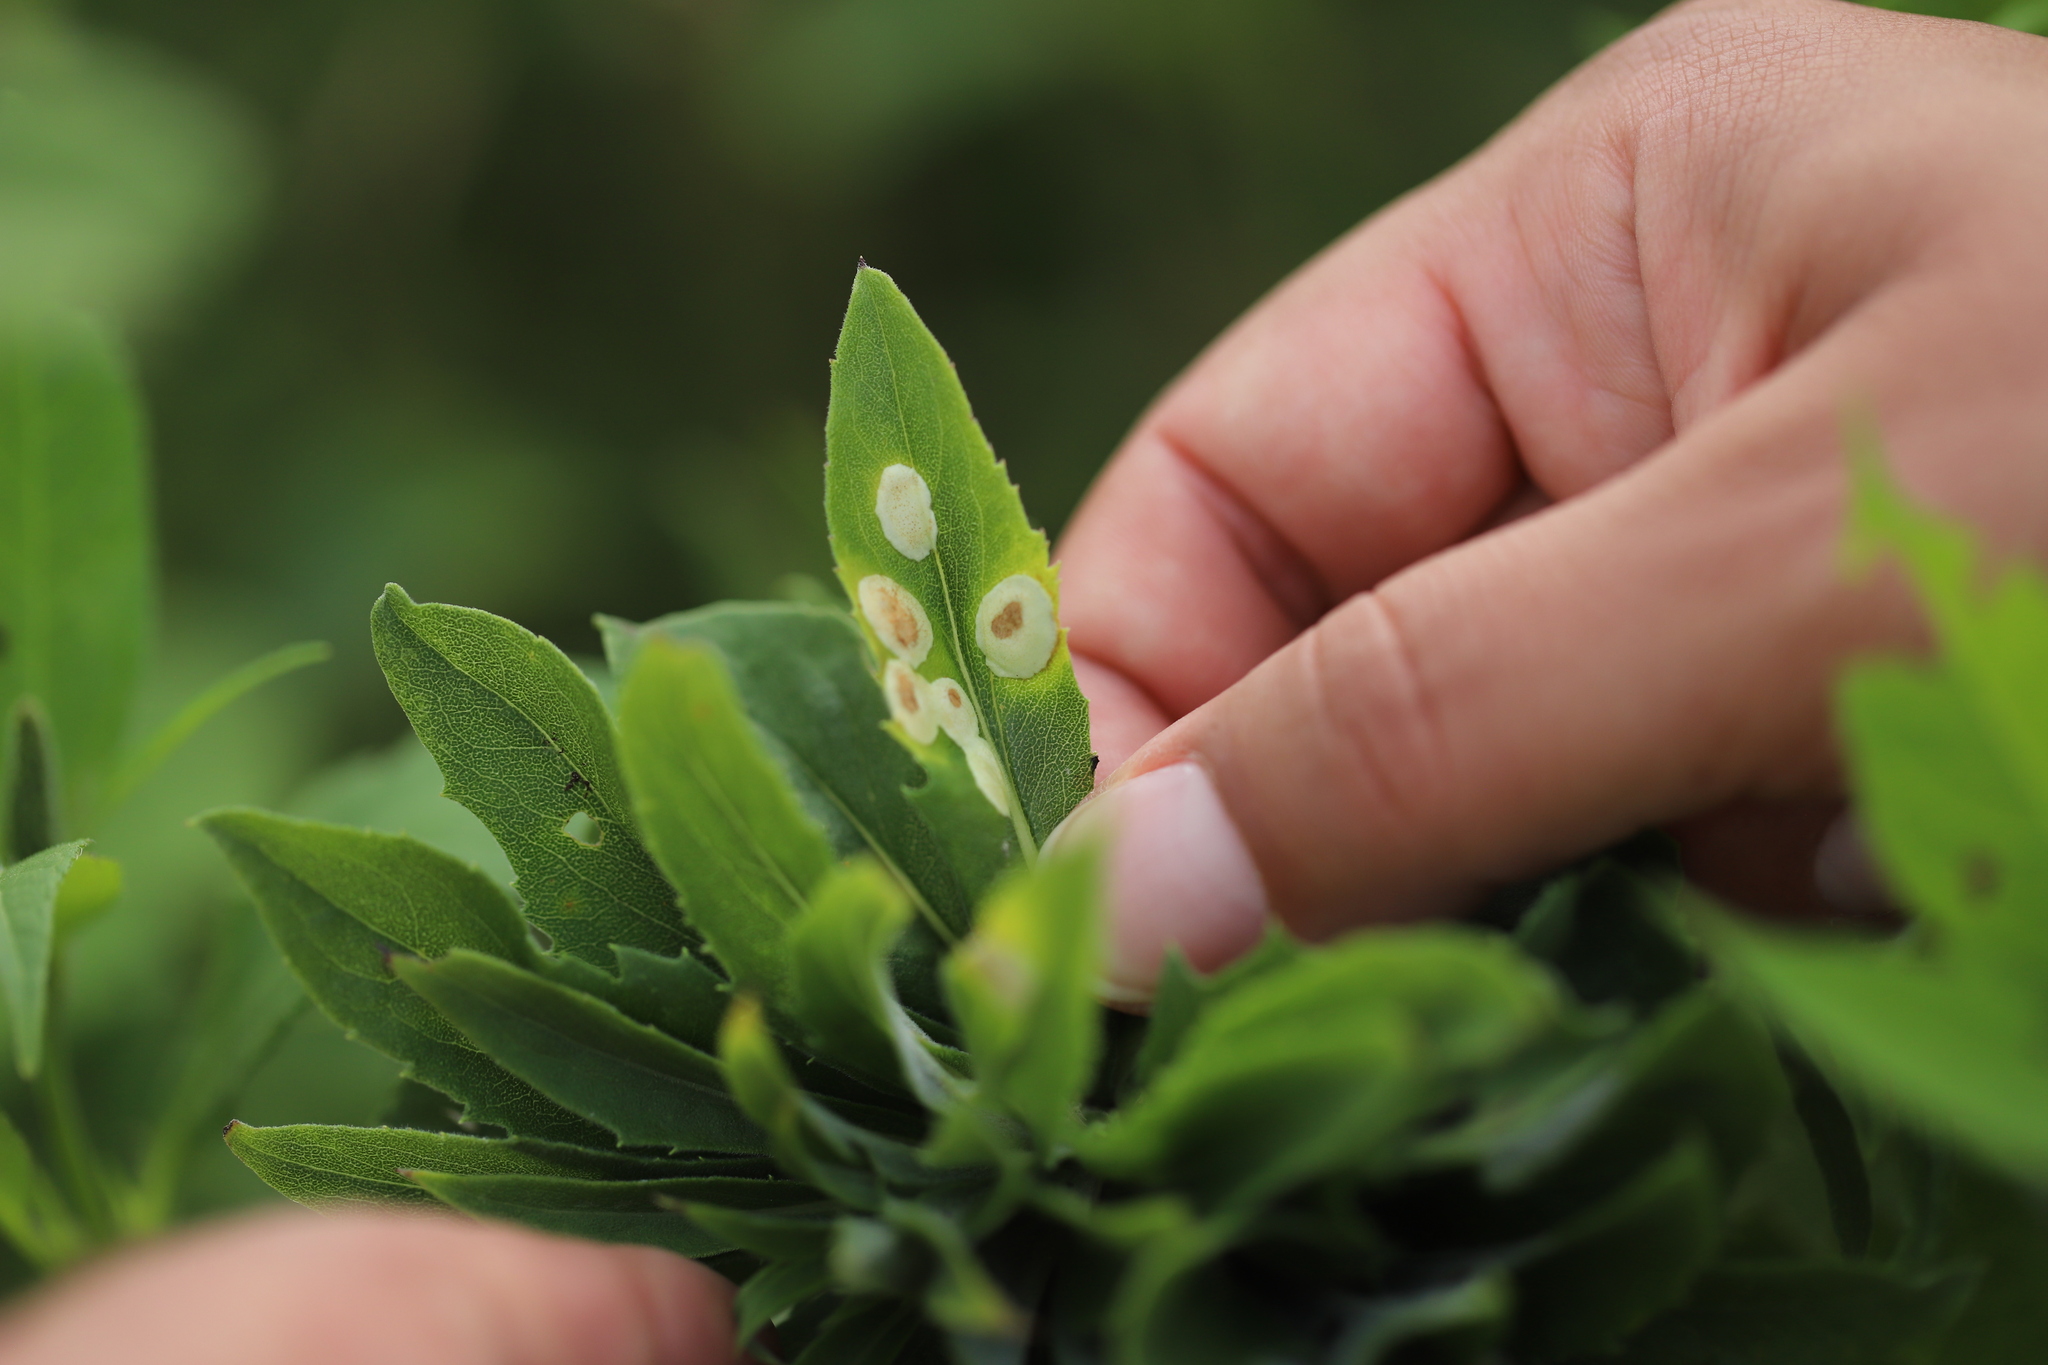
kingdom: Animalia
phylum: Arthropoda
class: Insecta
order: Diptera
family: Cecidomyiidae
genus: Asteromyia
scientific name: Asteromyia carbonifera
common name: Carbonifera goldenrod gall midge
